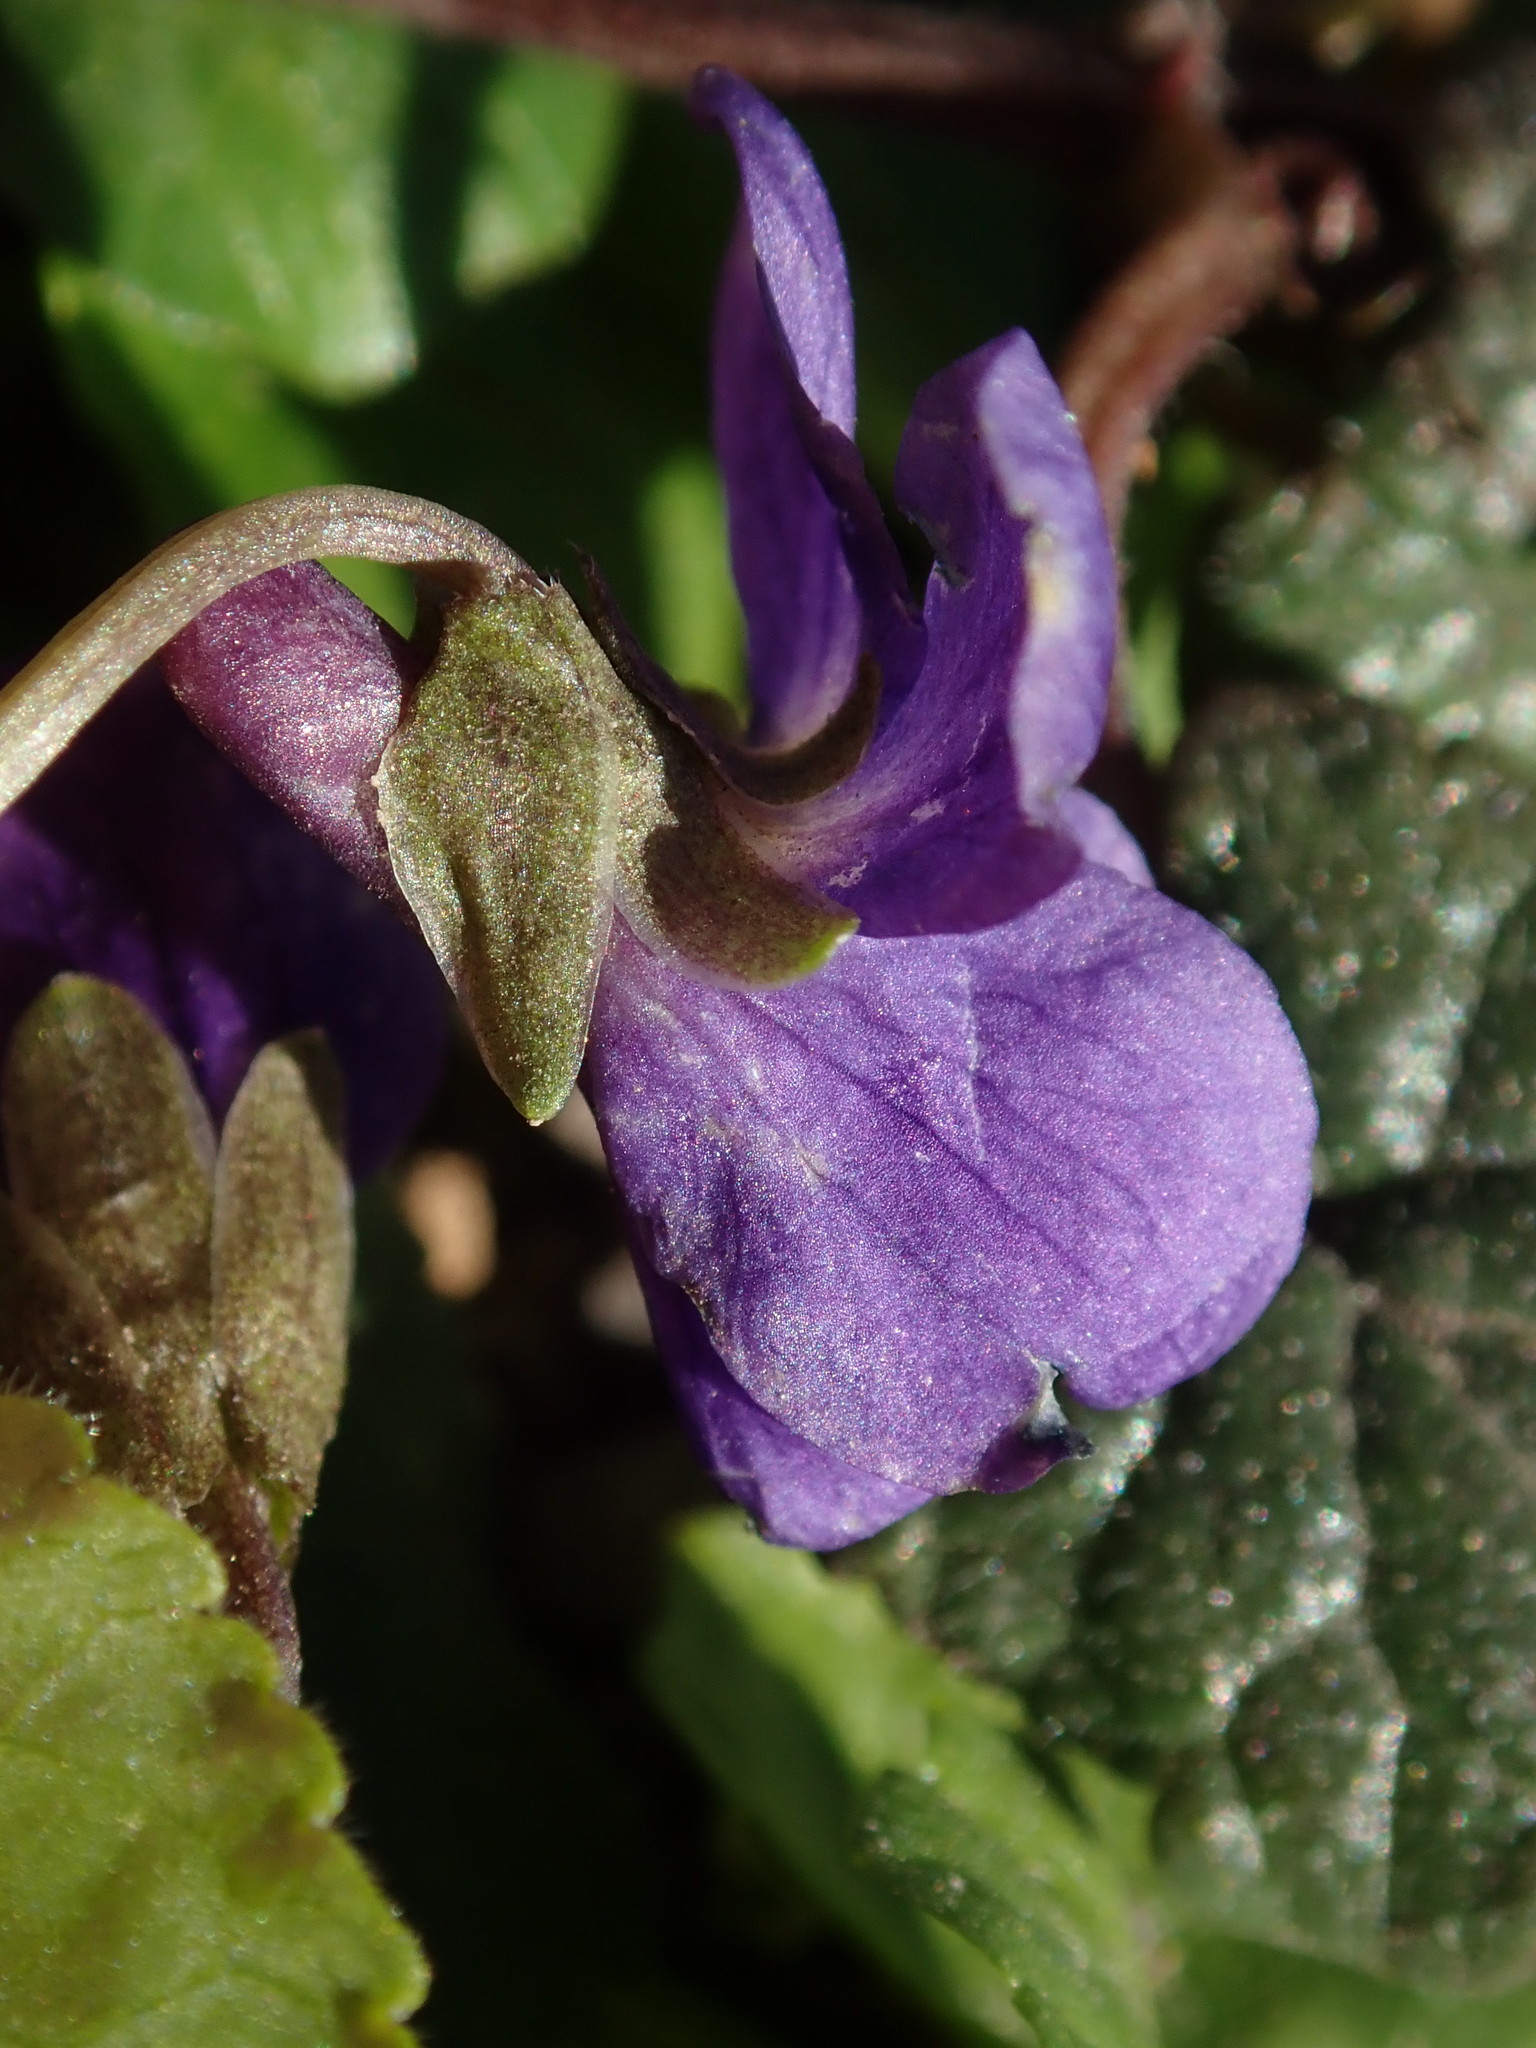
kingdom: Plantae
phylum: Tracheophyta
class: Magnoliopsida
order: Malpighiales
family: Violaceae
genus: Viola
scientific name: Viola odorata
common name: Sweet violet
